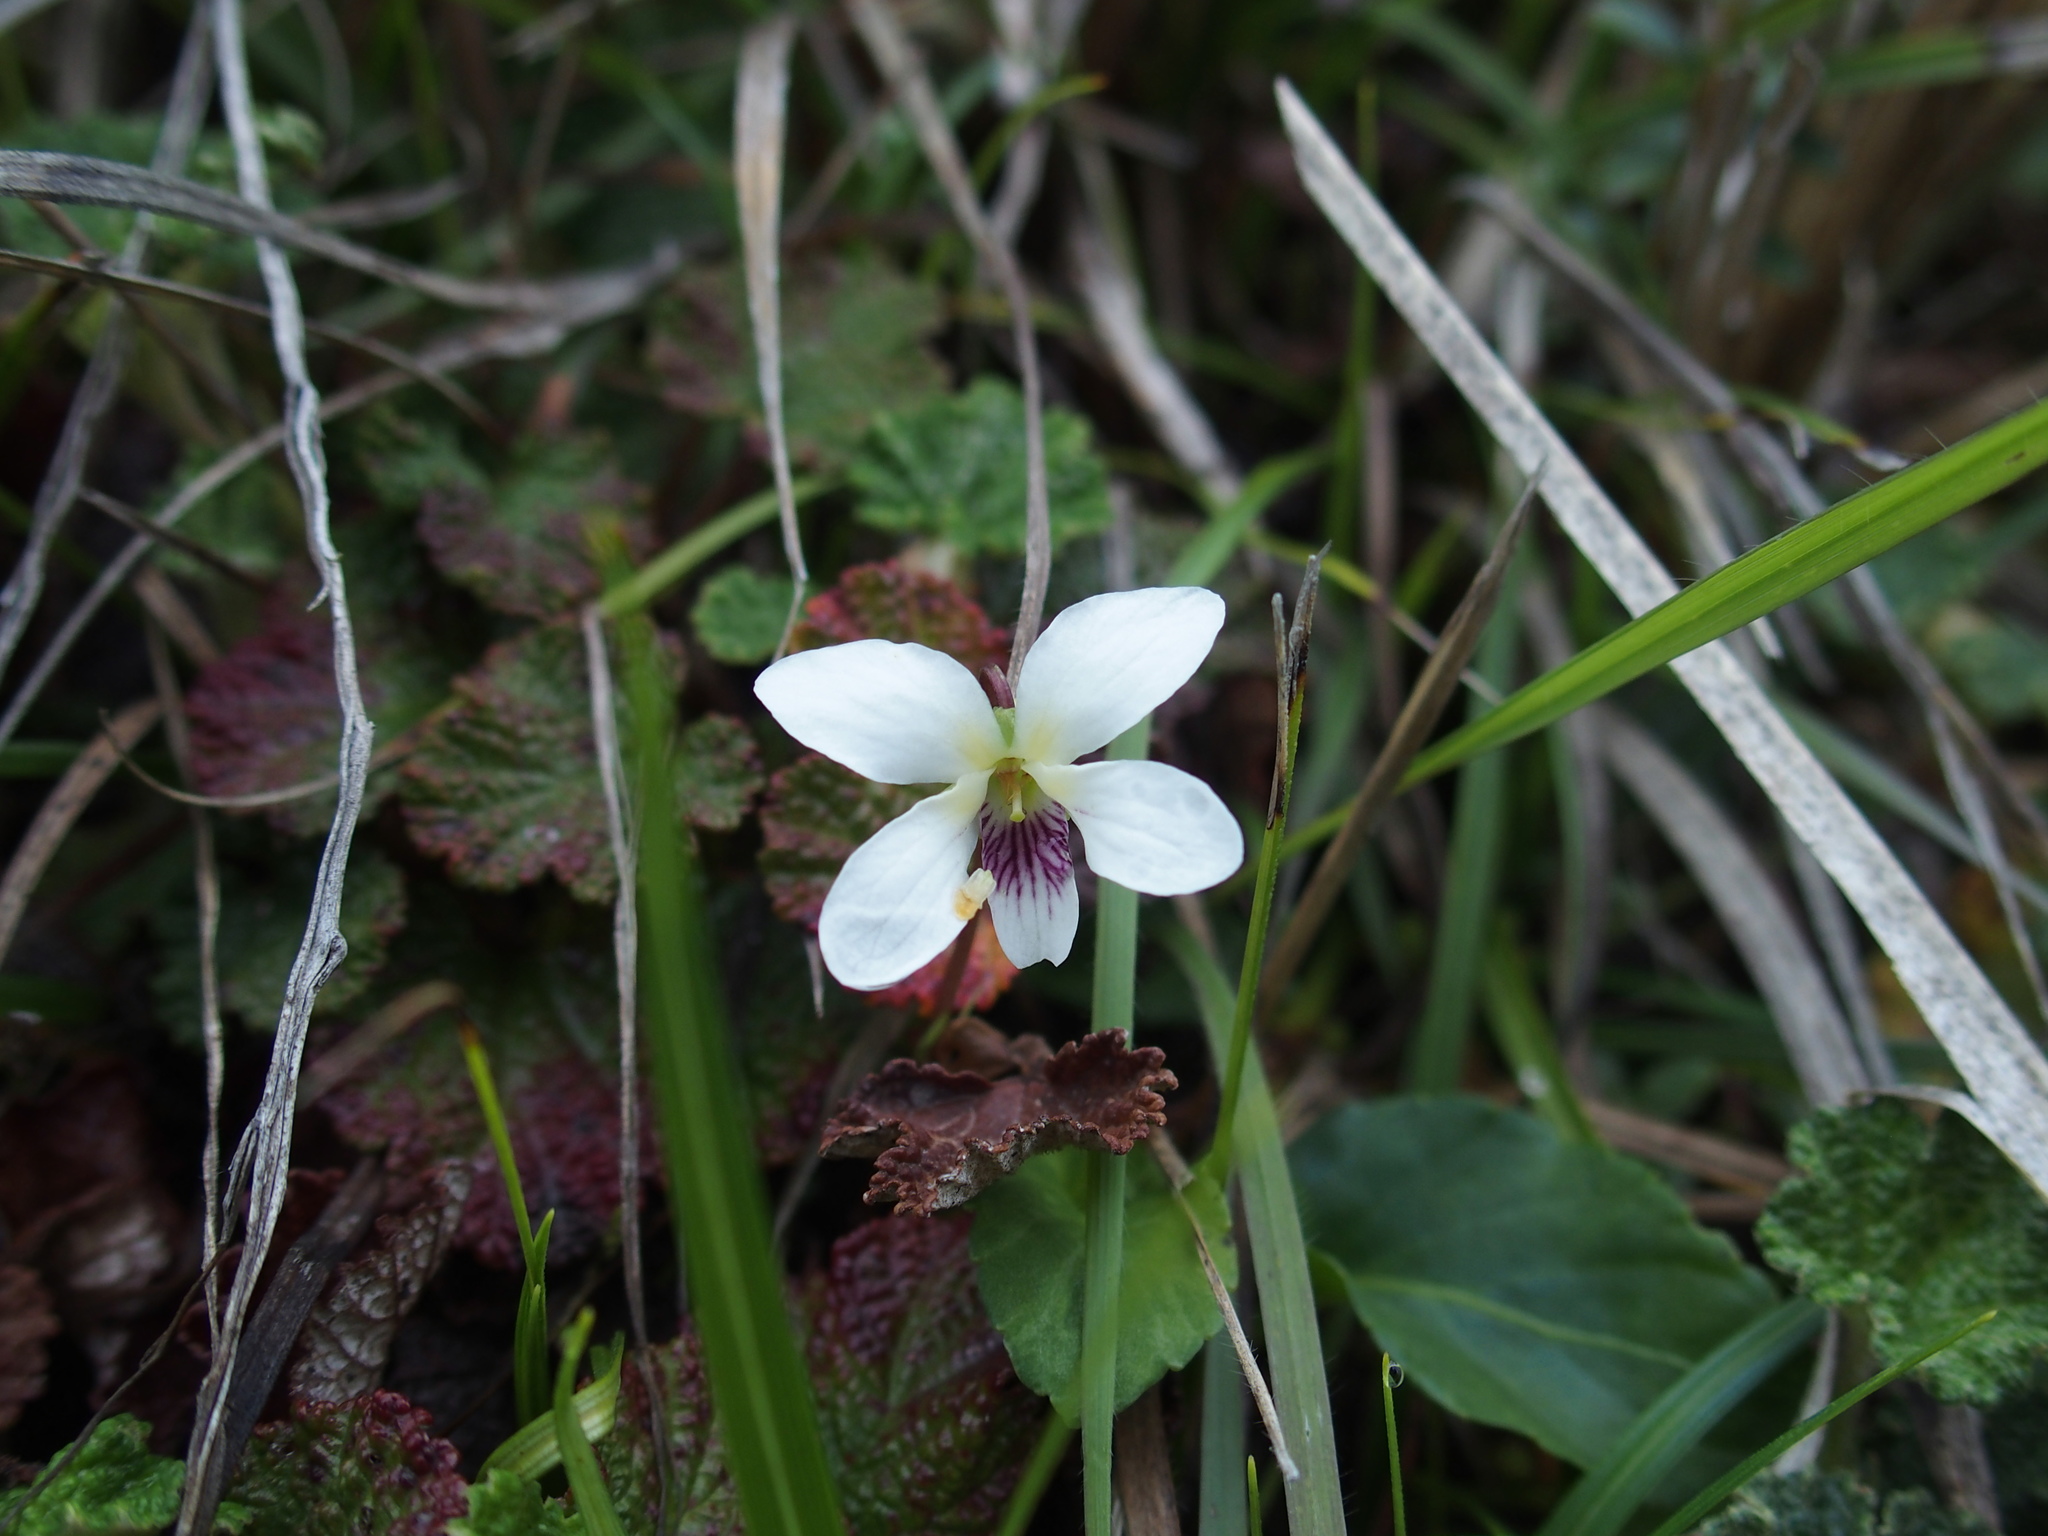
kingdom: Plantae
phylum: Tracheophyta
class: Magnoliopsida
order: Malpighiales
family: Violaceae
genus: Viola
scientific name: Viola adenothrix
